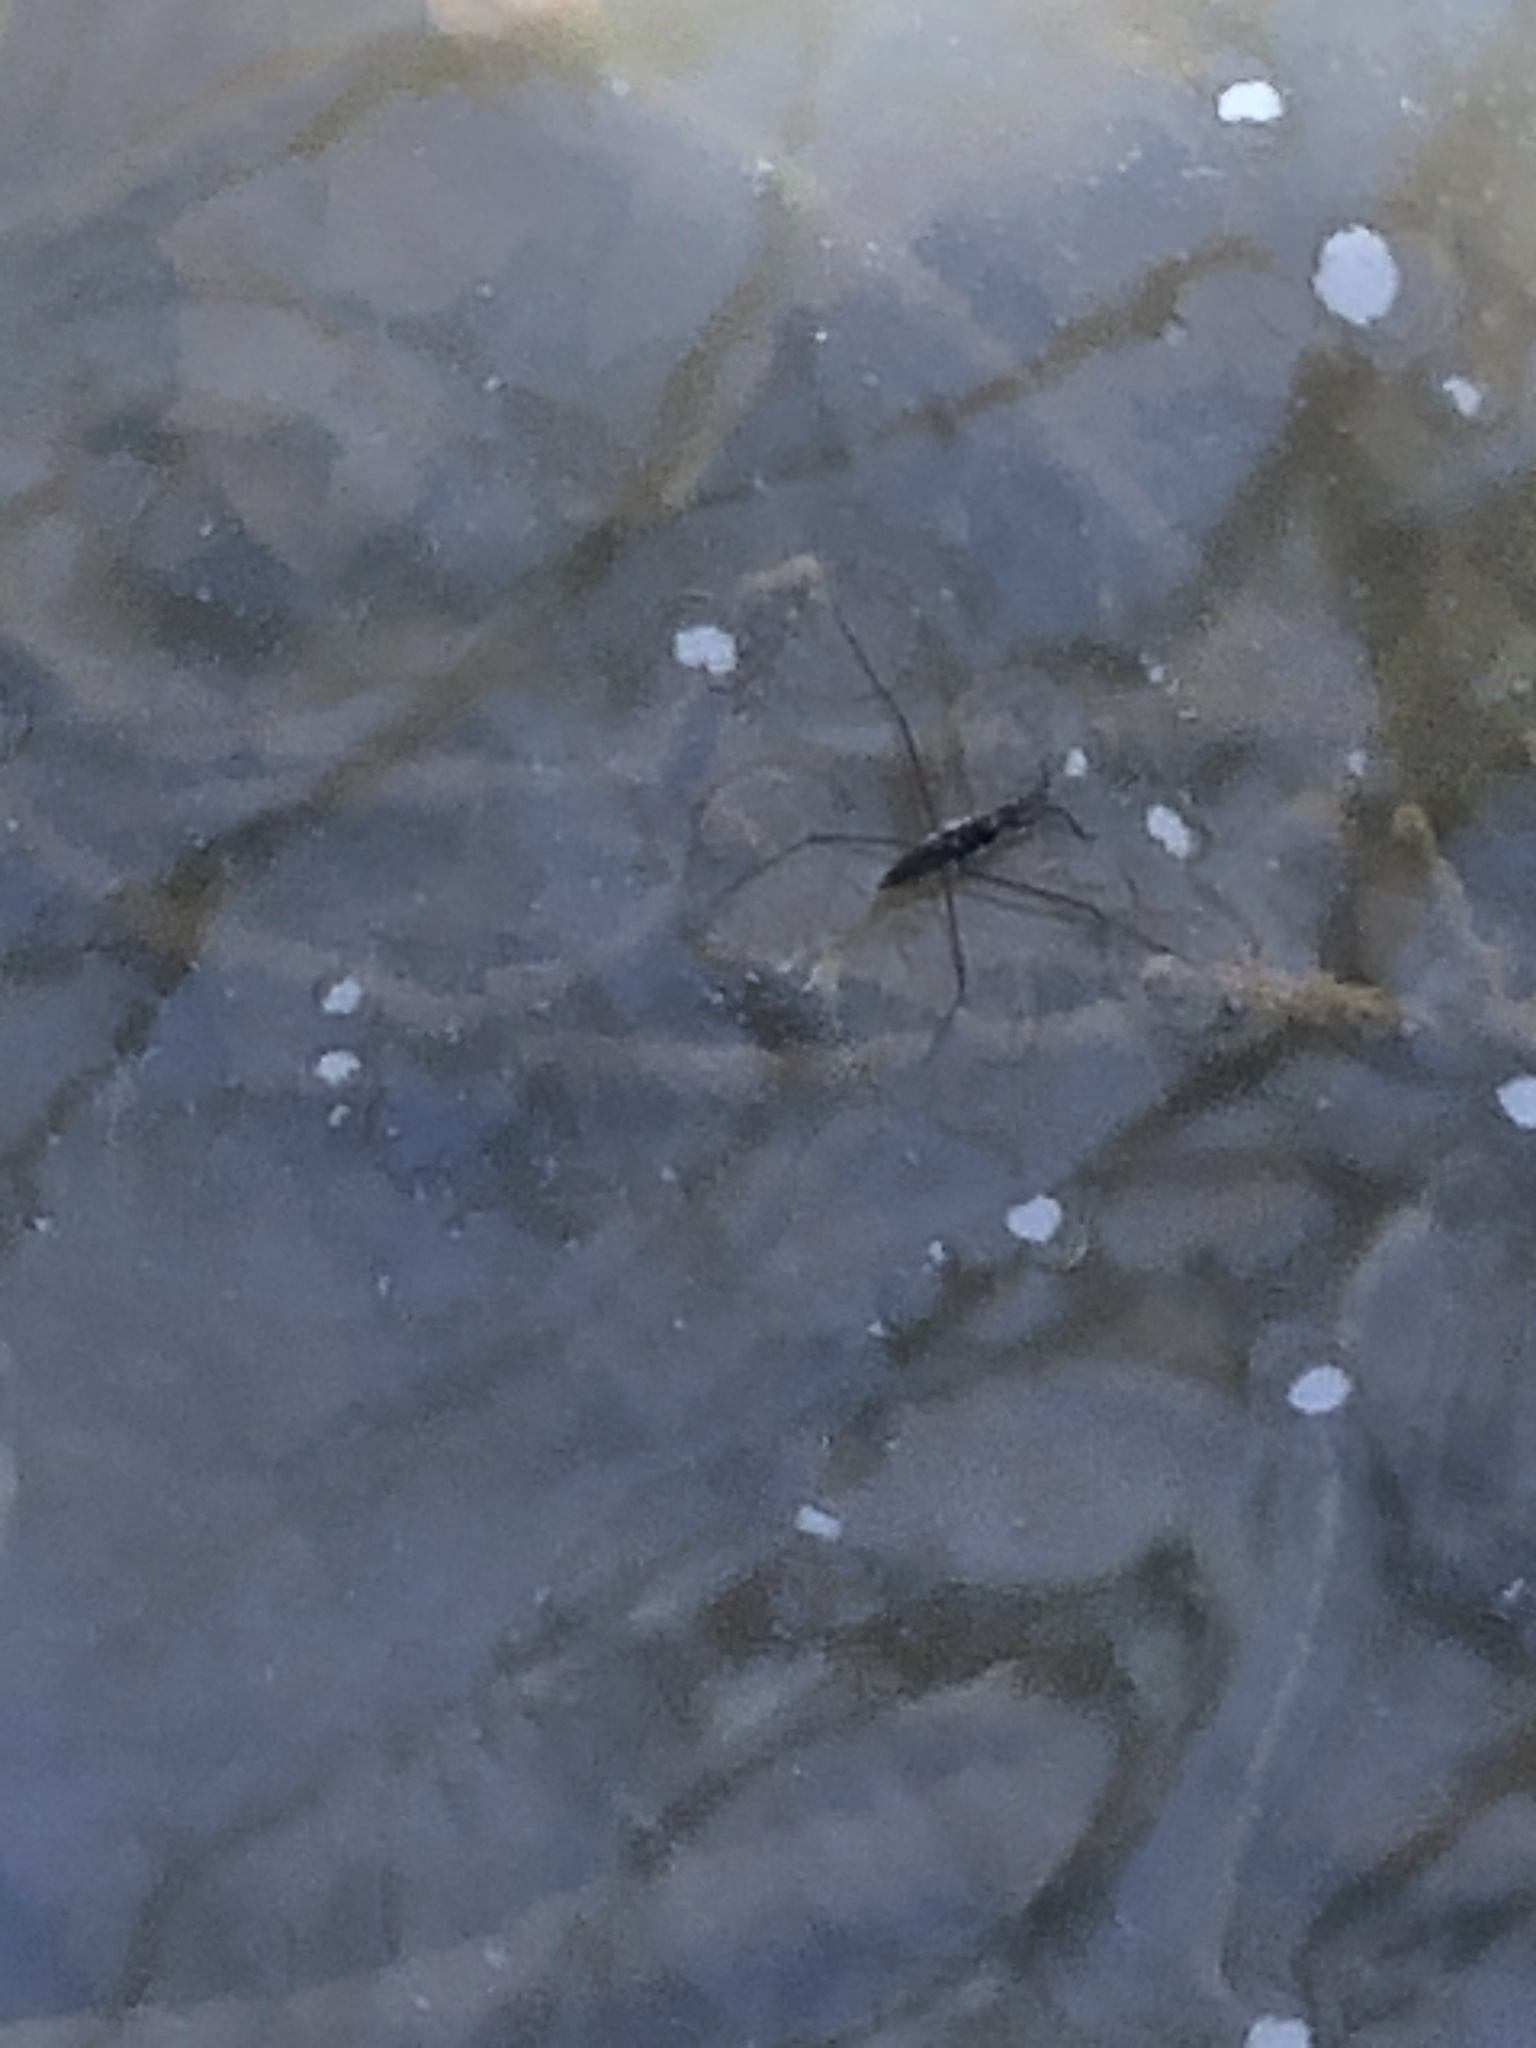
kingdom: Animalia
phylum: Arthropoda
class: Insecta
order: Hemiptera
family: Gerridae
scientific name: Gerridae
